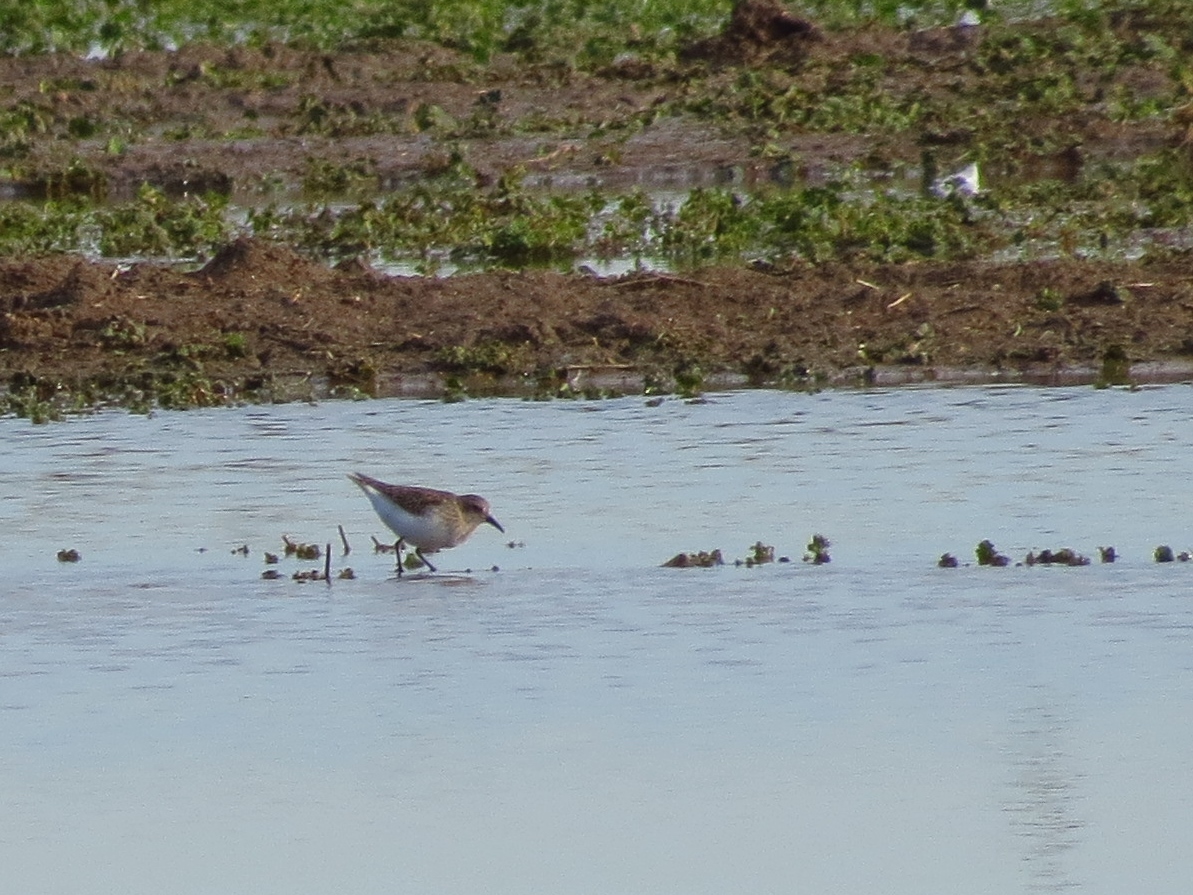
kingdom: Animalia
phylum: Chordata
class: Aves
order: Charadriiformes
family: Scolopacidae
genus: Calidris
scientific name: Calidris minutilla
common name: Least sandpiper
